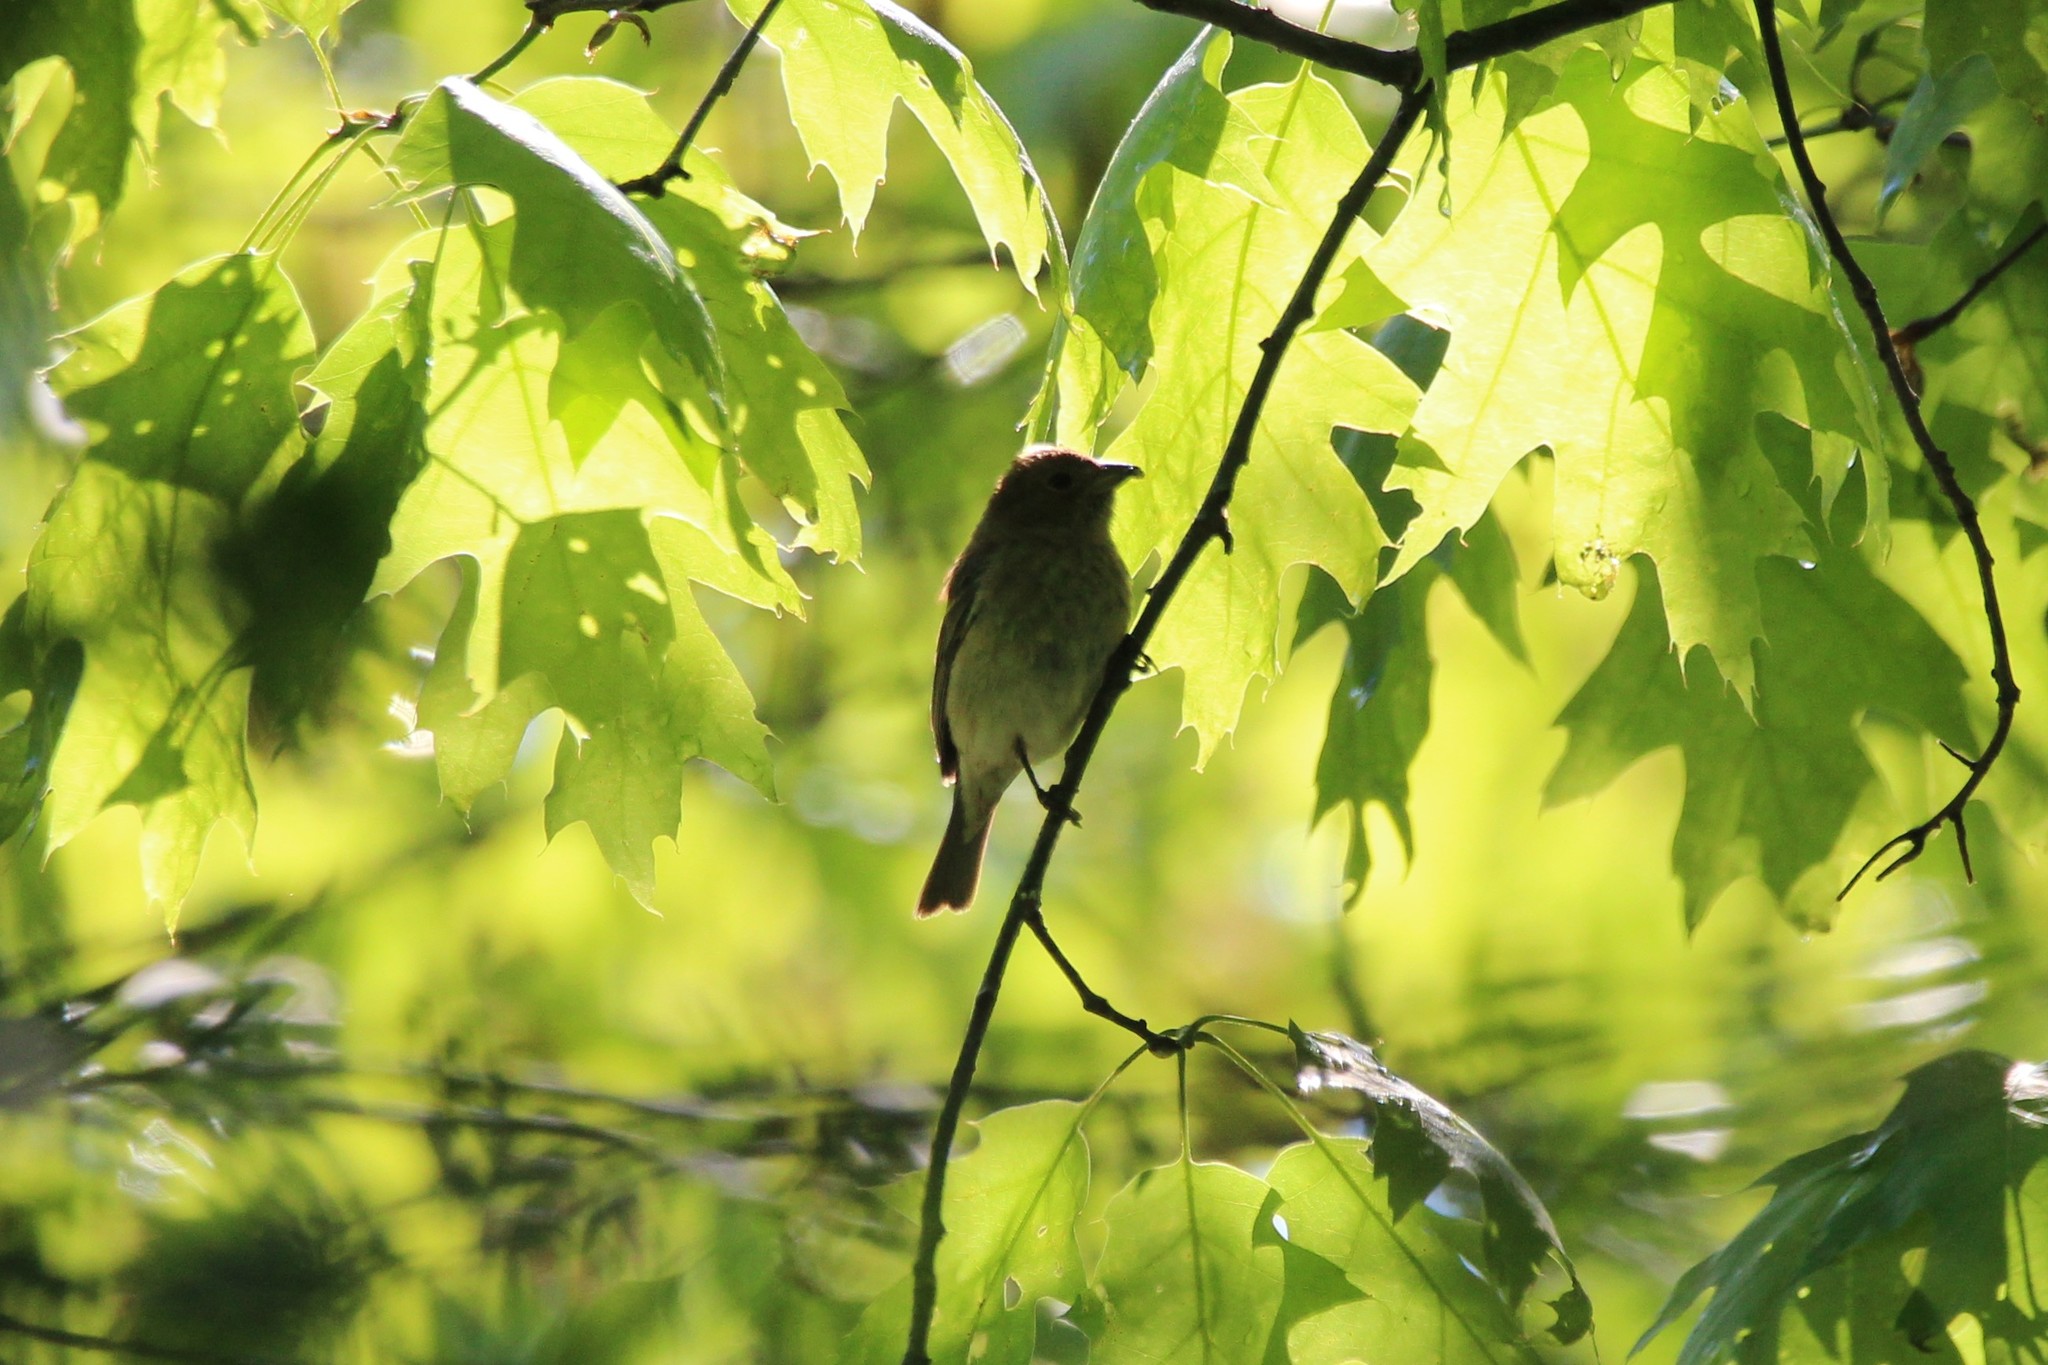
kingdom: Animalia
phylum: Chordata
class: Aves
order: Passeriformes
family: Cardinalidae
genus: Passerina
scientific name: Passerina cyanea
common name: Indigo bunting
